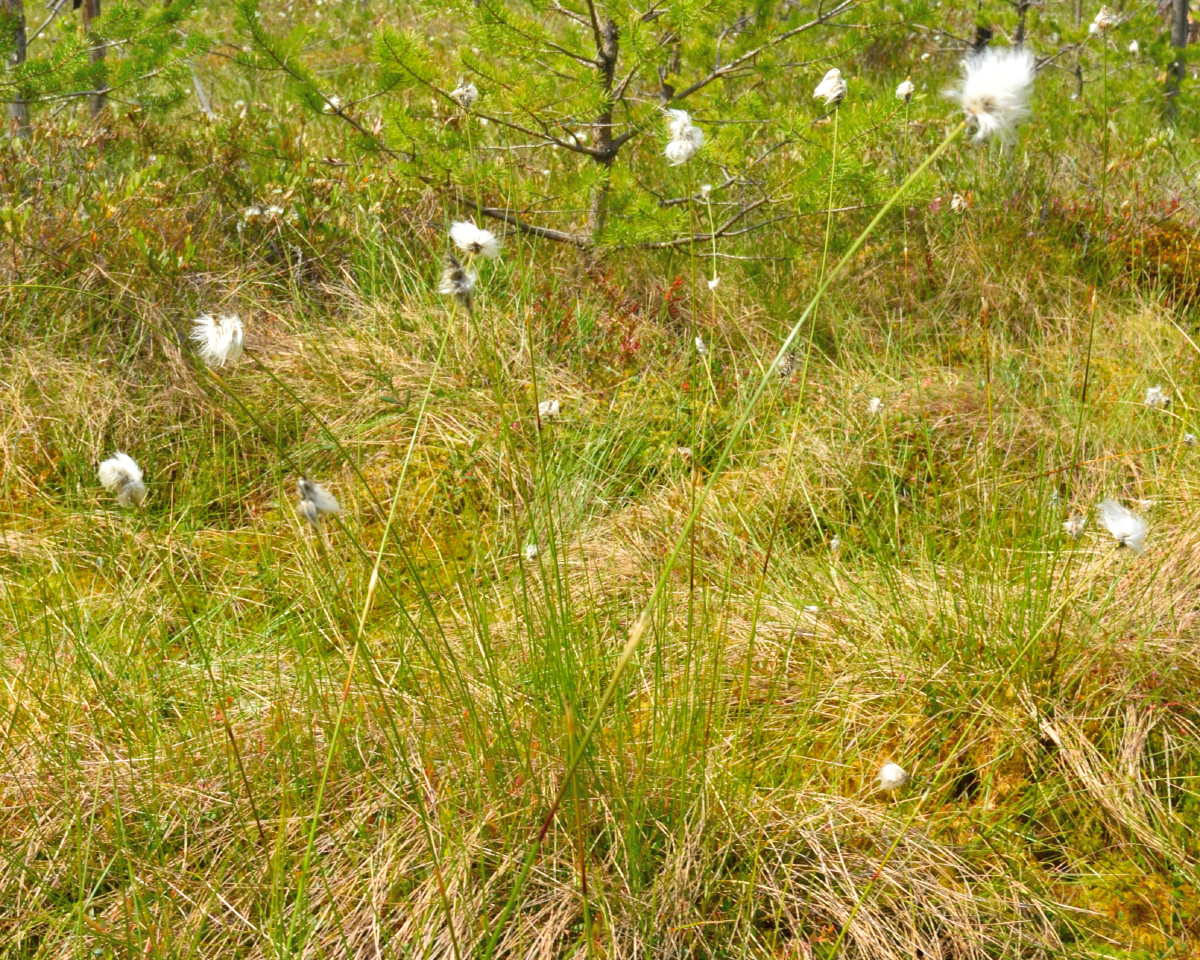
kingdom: Plantae
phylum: Tracheophyta
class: Liliopsida
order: Poales
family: Cyperaceae
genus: Eriophorum
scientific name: Eriophorum vaginatum
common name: Hare's-tail cottongrass
